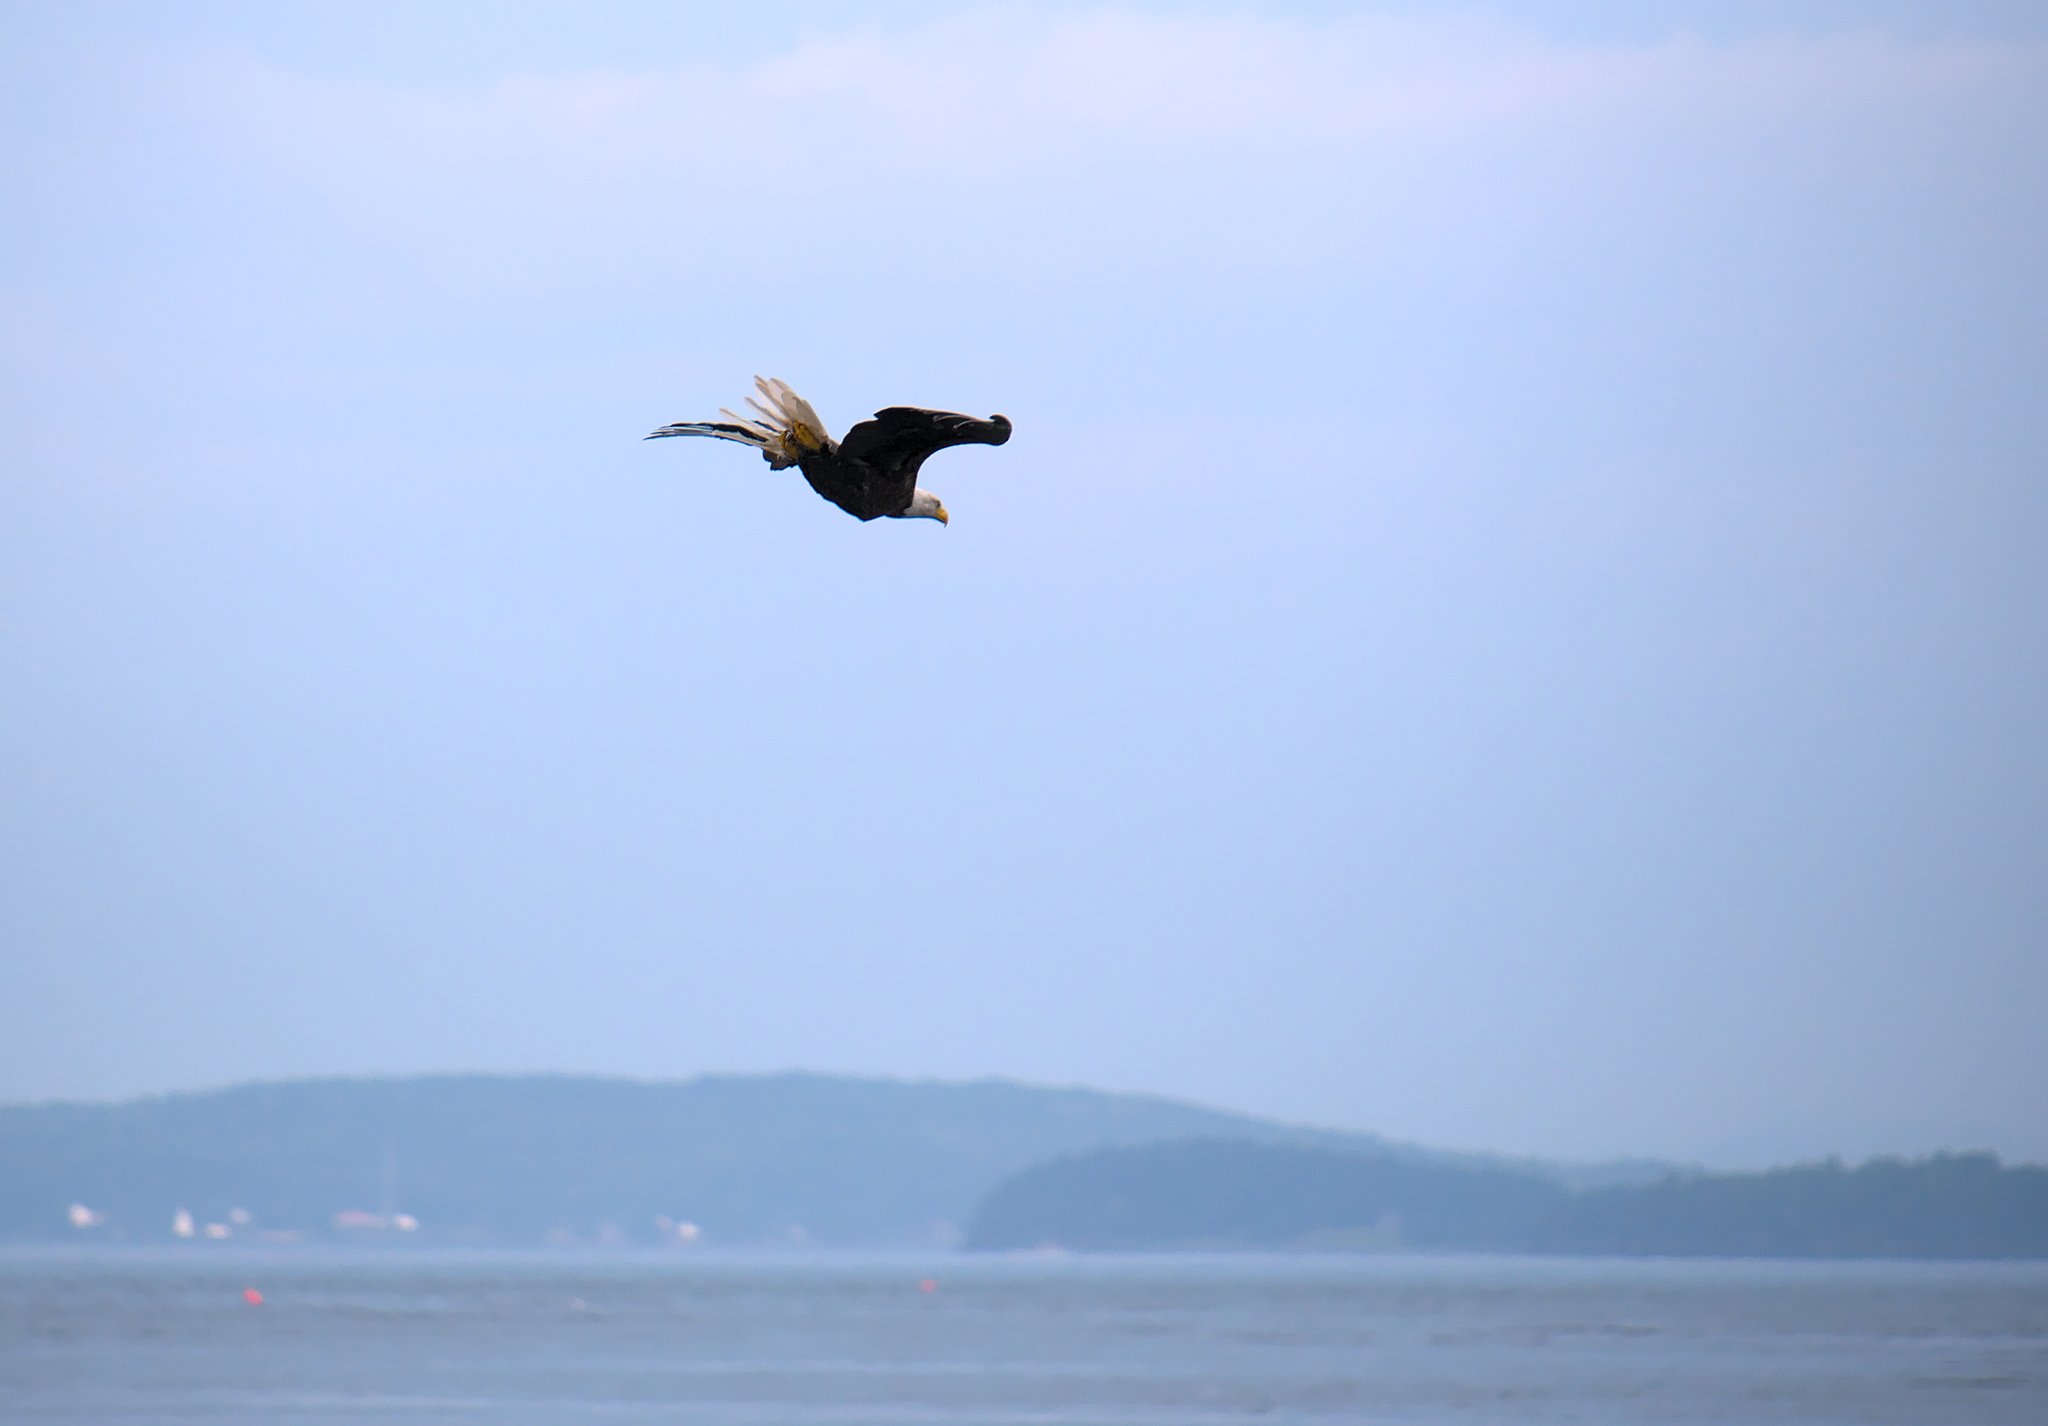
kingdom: Animalia
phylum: Chordata
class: Aves
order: Accipitriformes
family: Accipitridae
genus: Haliaeetus
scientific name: Haliaeetus leucocephalus
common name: Bald eagle
